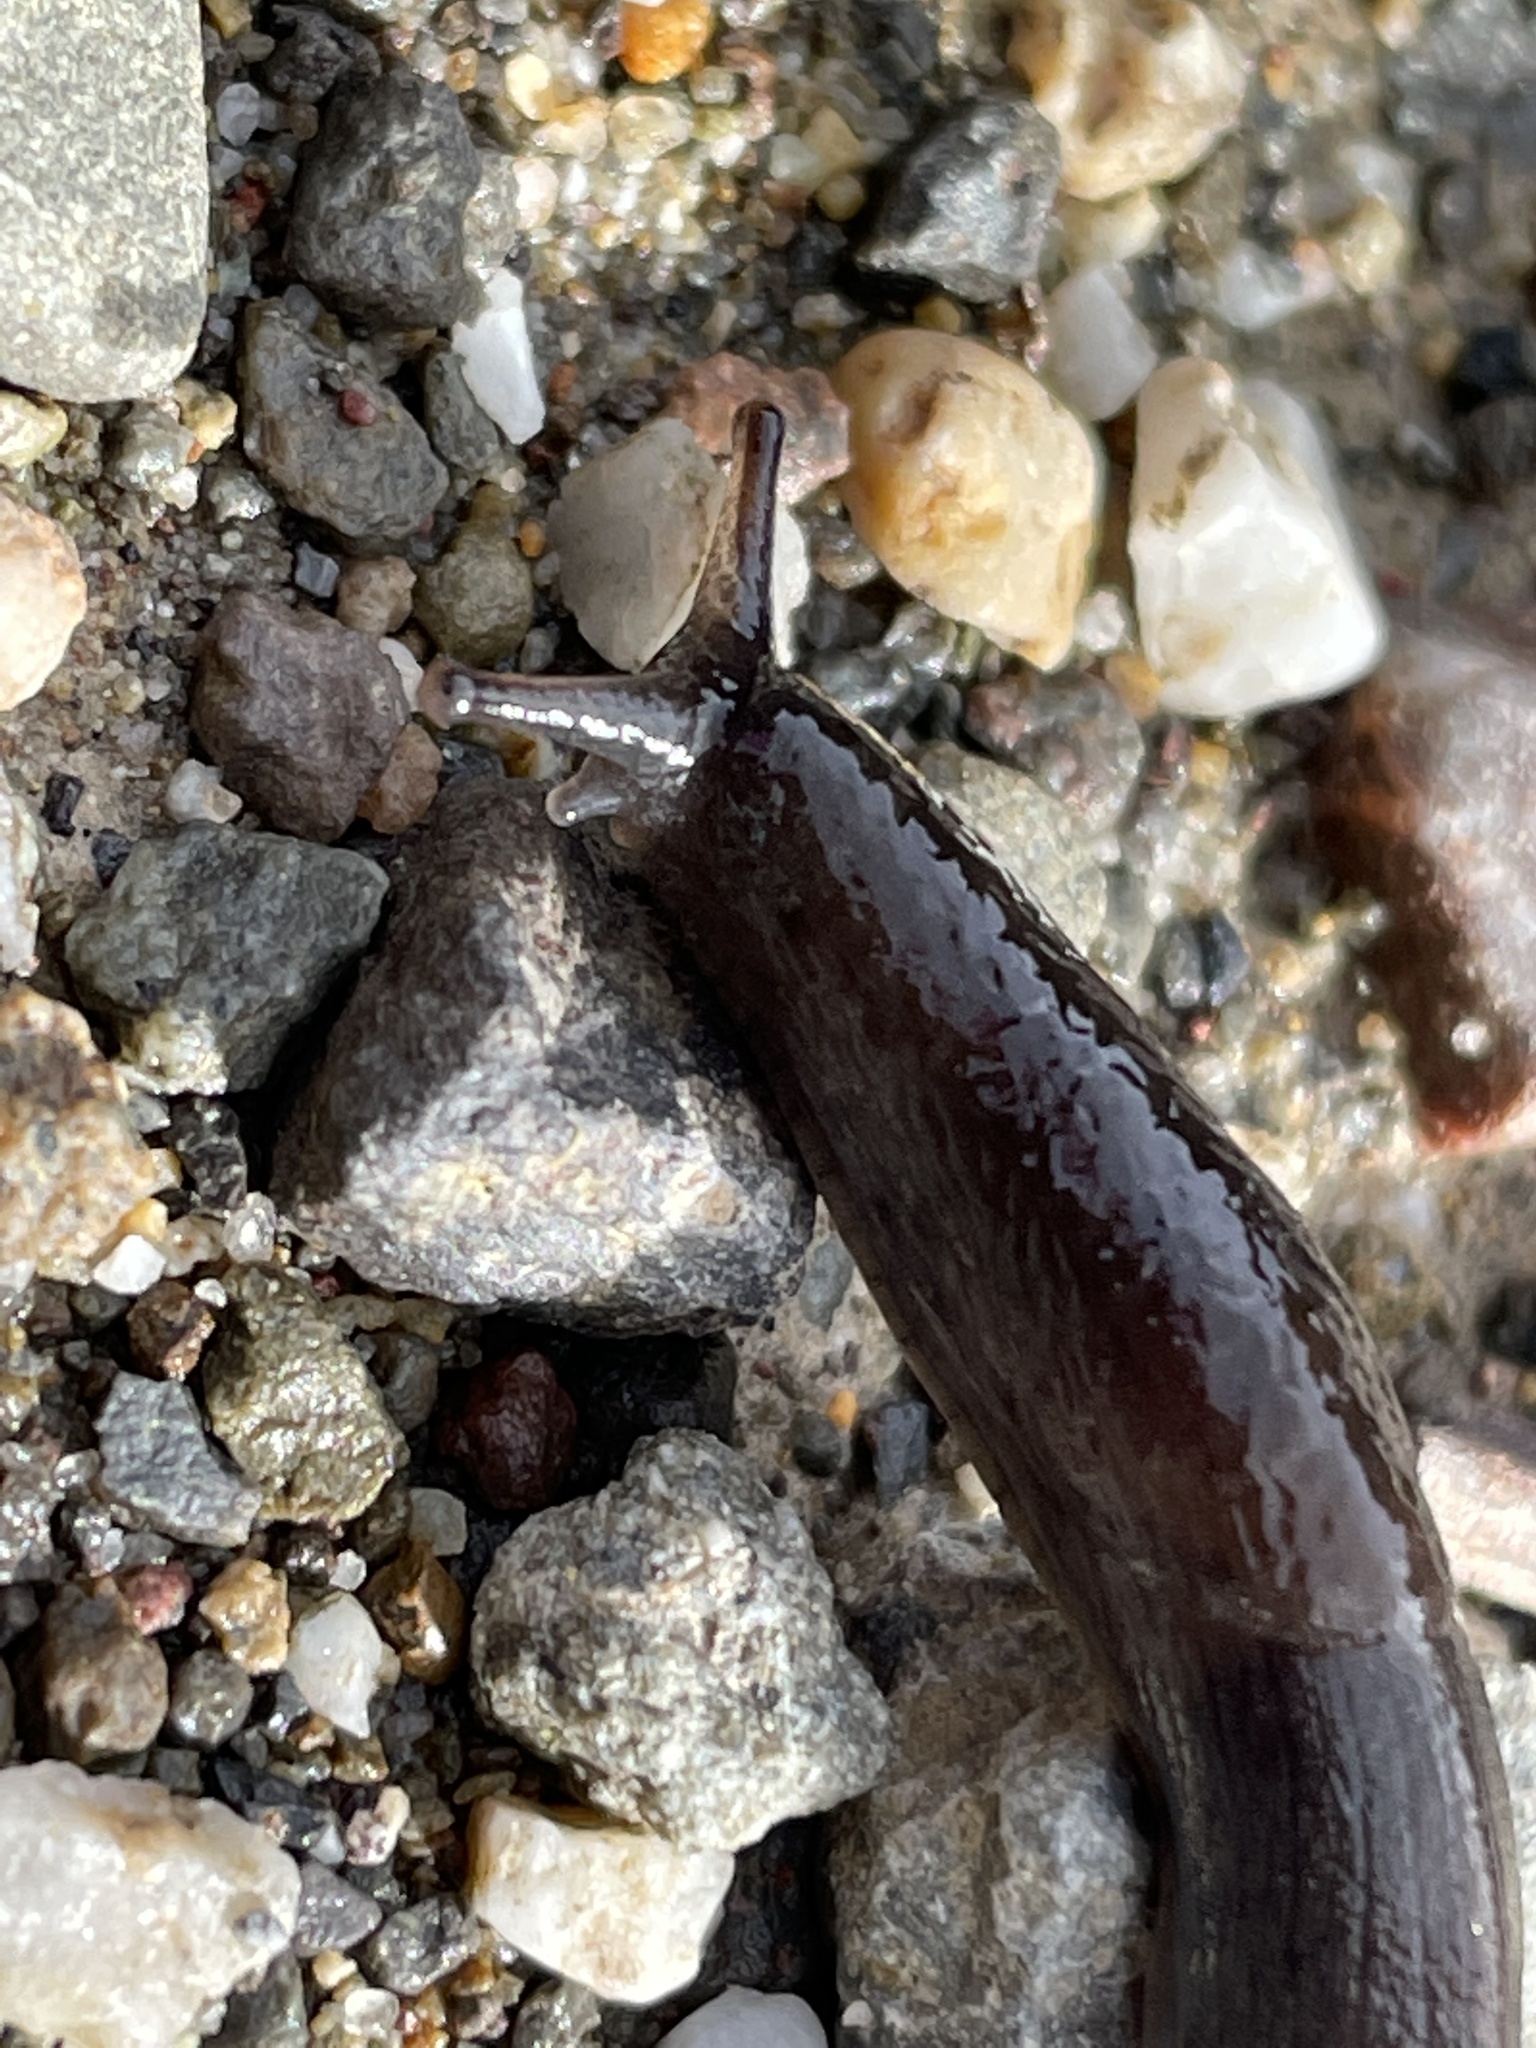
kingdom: Animalia
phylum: Mollusca
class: Gastropoda
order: Stylommatophora
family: Ariolimacidae
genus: Hesperarion
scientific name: Hesperarion niger
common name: Black western slug
